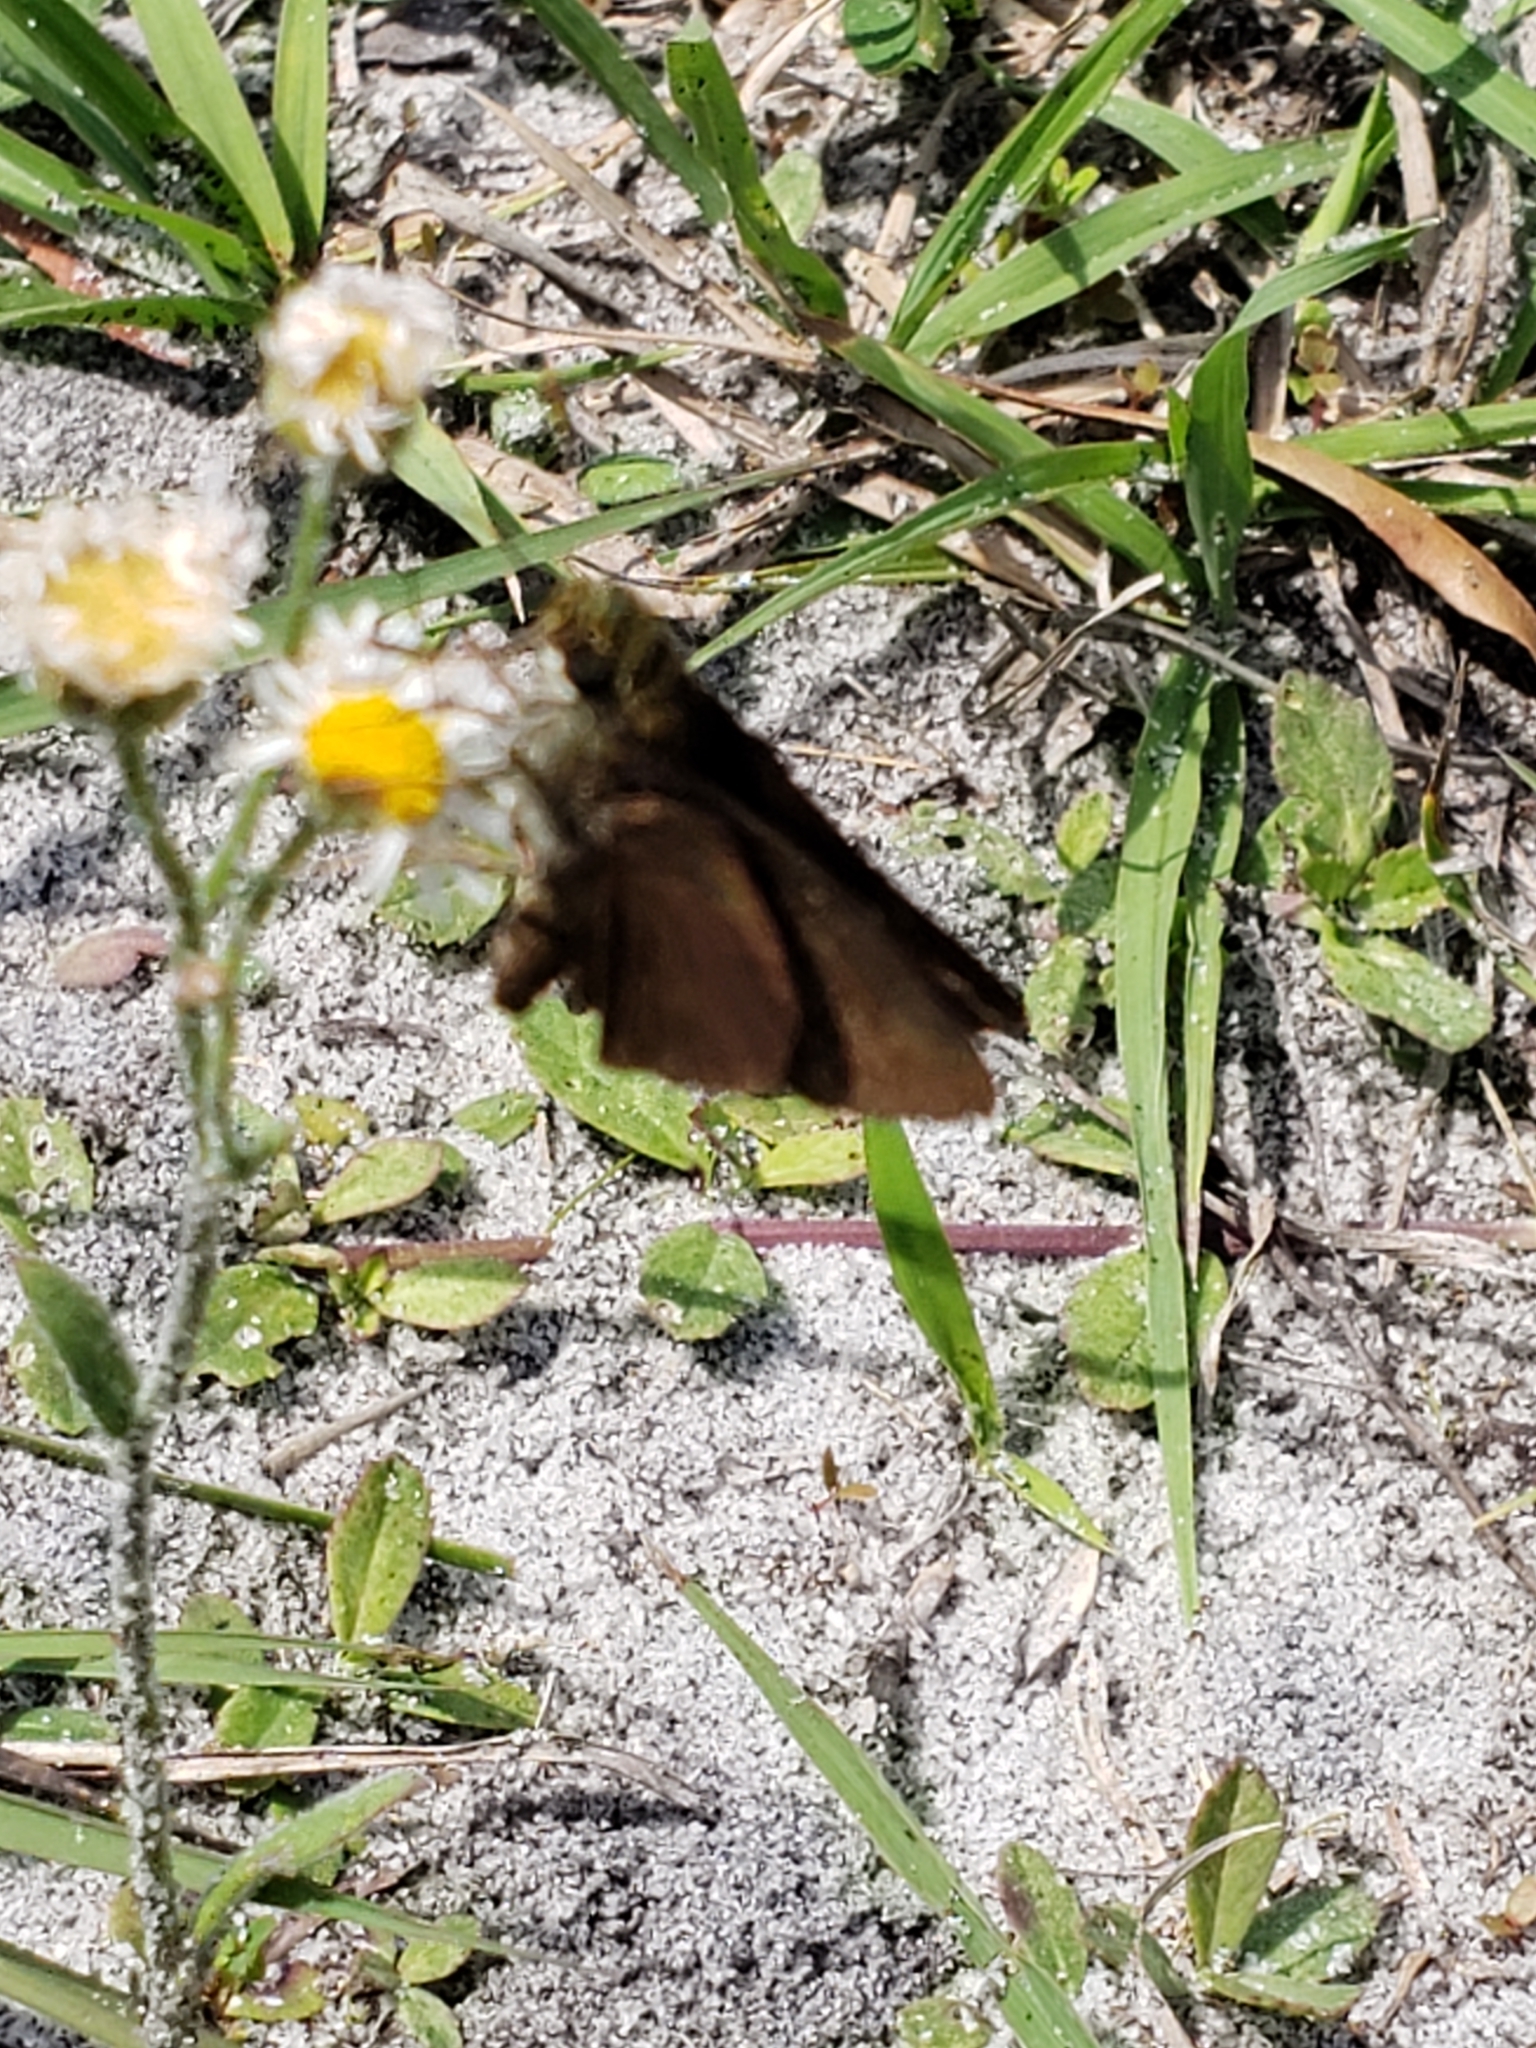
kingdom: Animalia
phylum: Arthropoda
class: Insecta
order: Lepidoptera
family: Hesperiidae
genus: Euphyes
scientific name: Euphyes vestris
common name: Dun skipper
